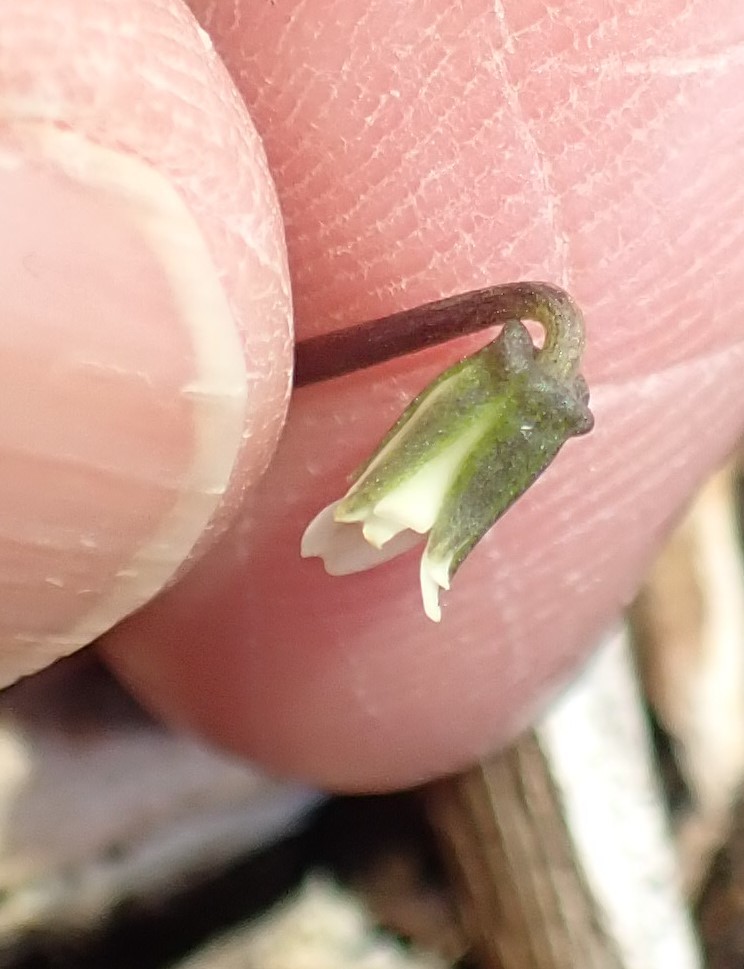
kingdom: Plantae
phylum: Tracheophyta
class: Magnoliopsida
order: Malpighiales
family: Violaceae
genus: Viola
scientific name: Viola cleistogamoides
